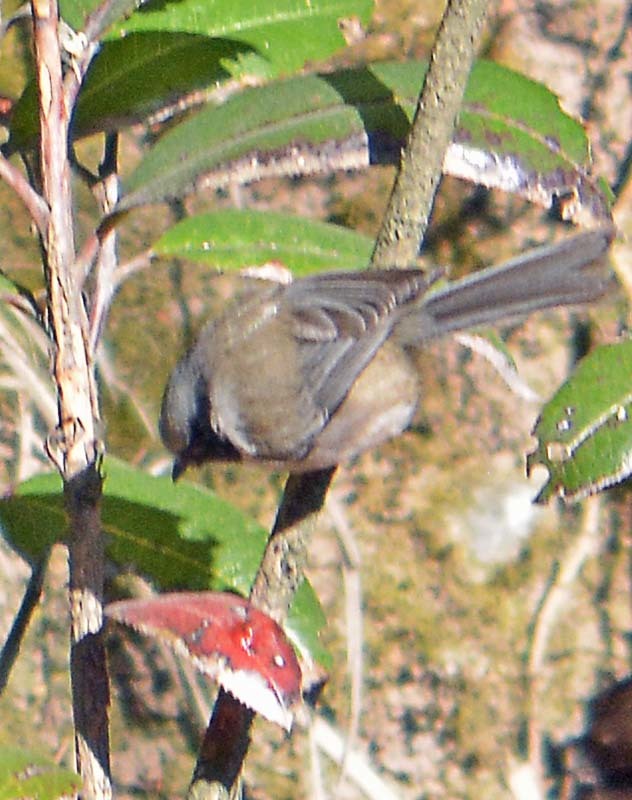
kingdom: Animalia
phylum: Chordata
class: Aves
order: Passeriformes
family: Aegithalidae
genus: Psaltriparus
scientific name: Psaltriparus minimus
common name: American bushtit
